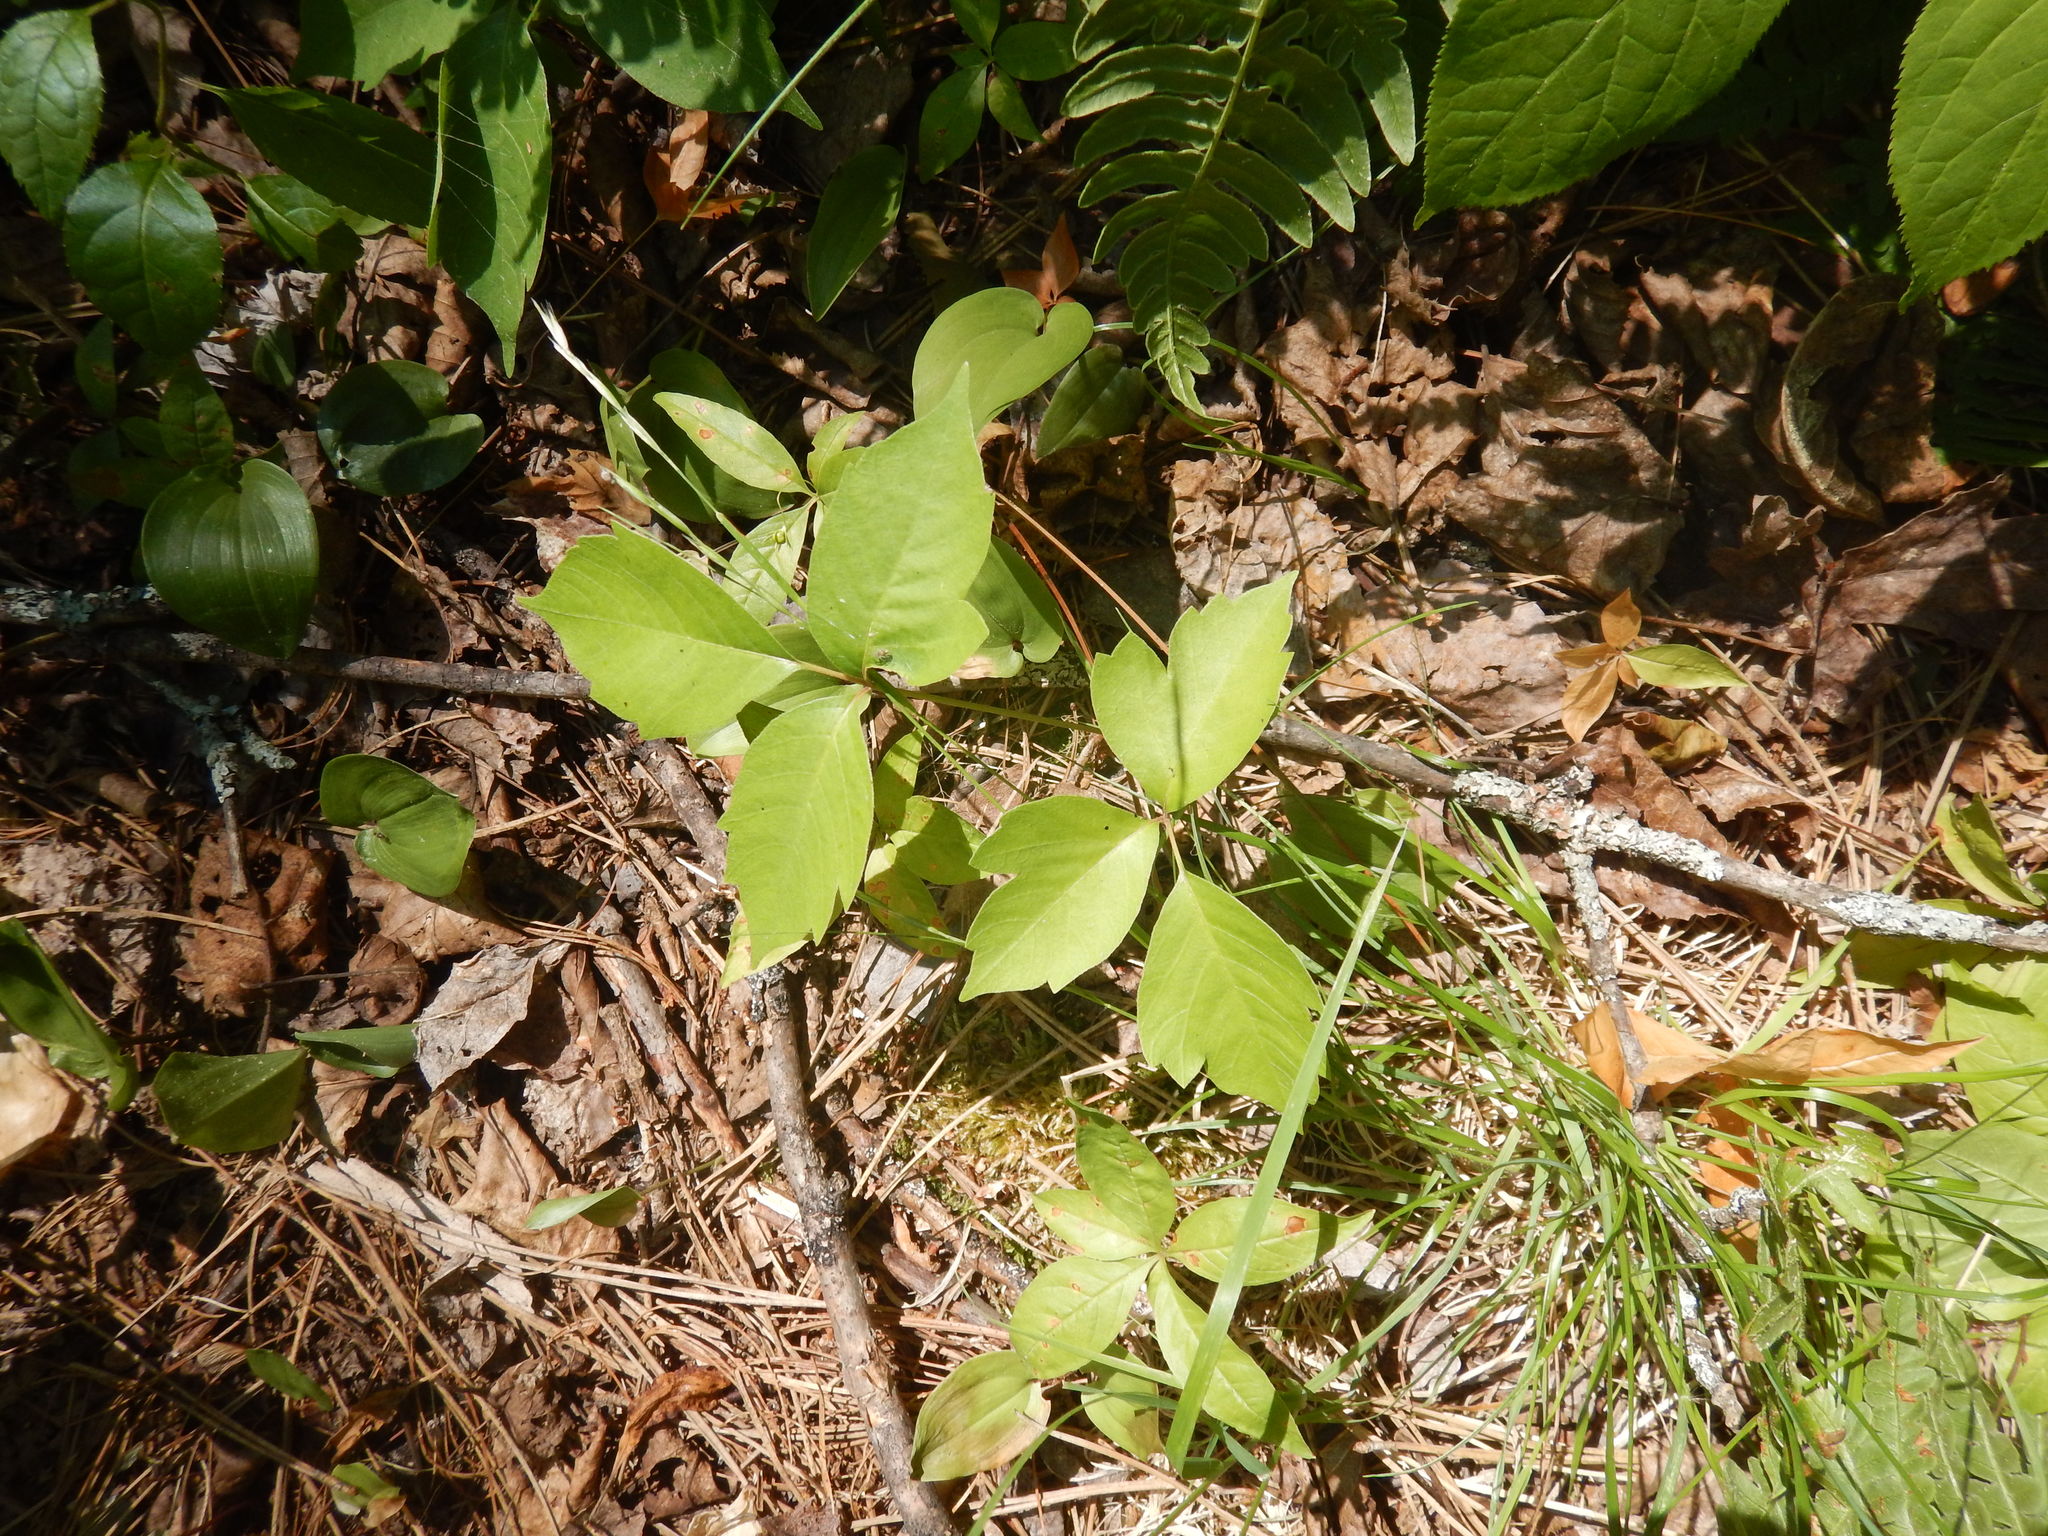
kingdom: Plantae
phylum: Tracheophyta
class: Magnoliopsida
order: Sapindales
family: Anacardiaceae
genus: Toxicodendron
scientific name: Toxicodendron radicans
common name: Poison ivy
